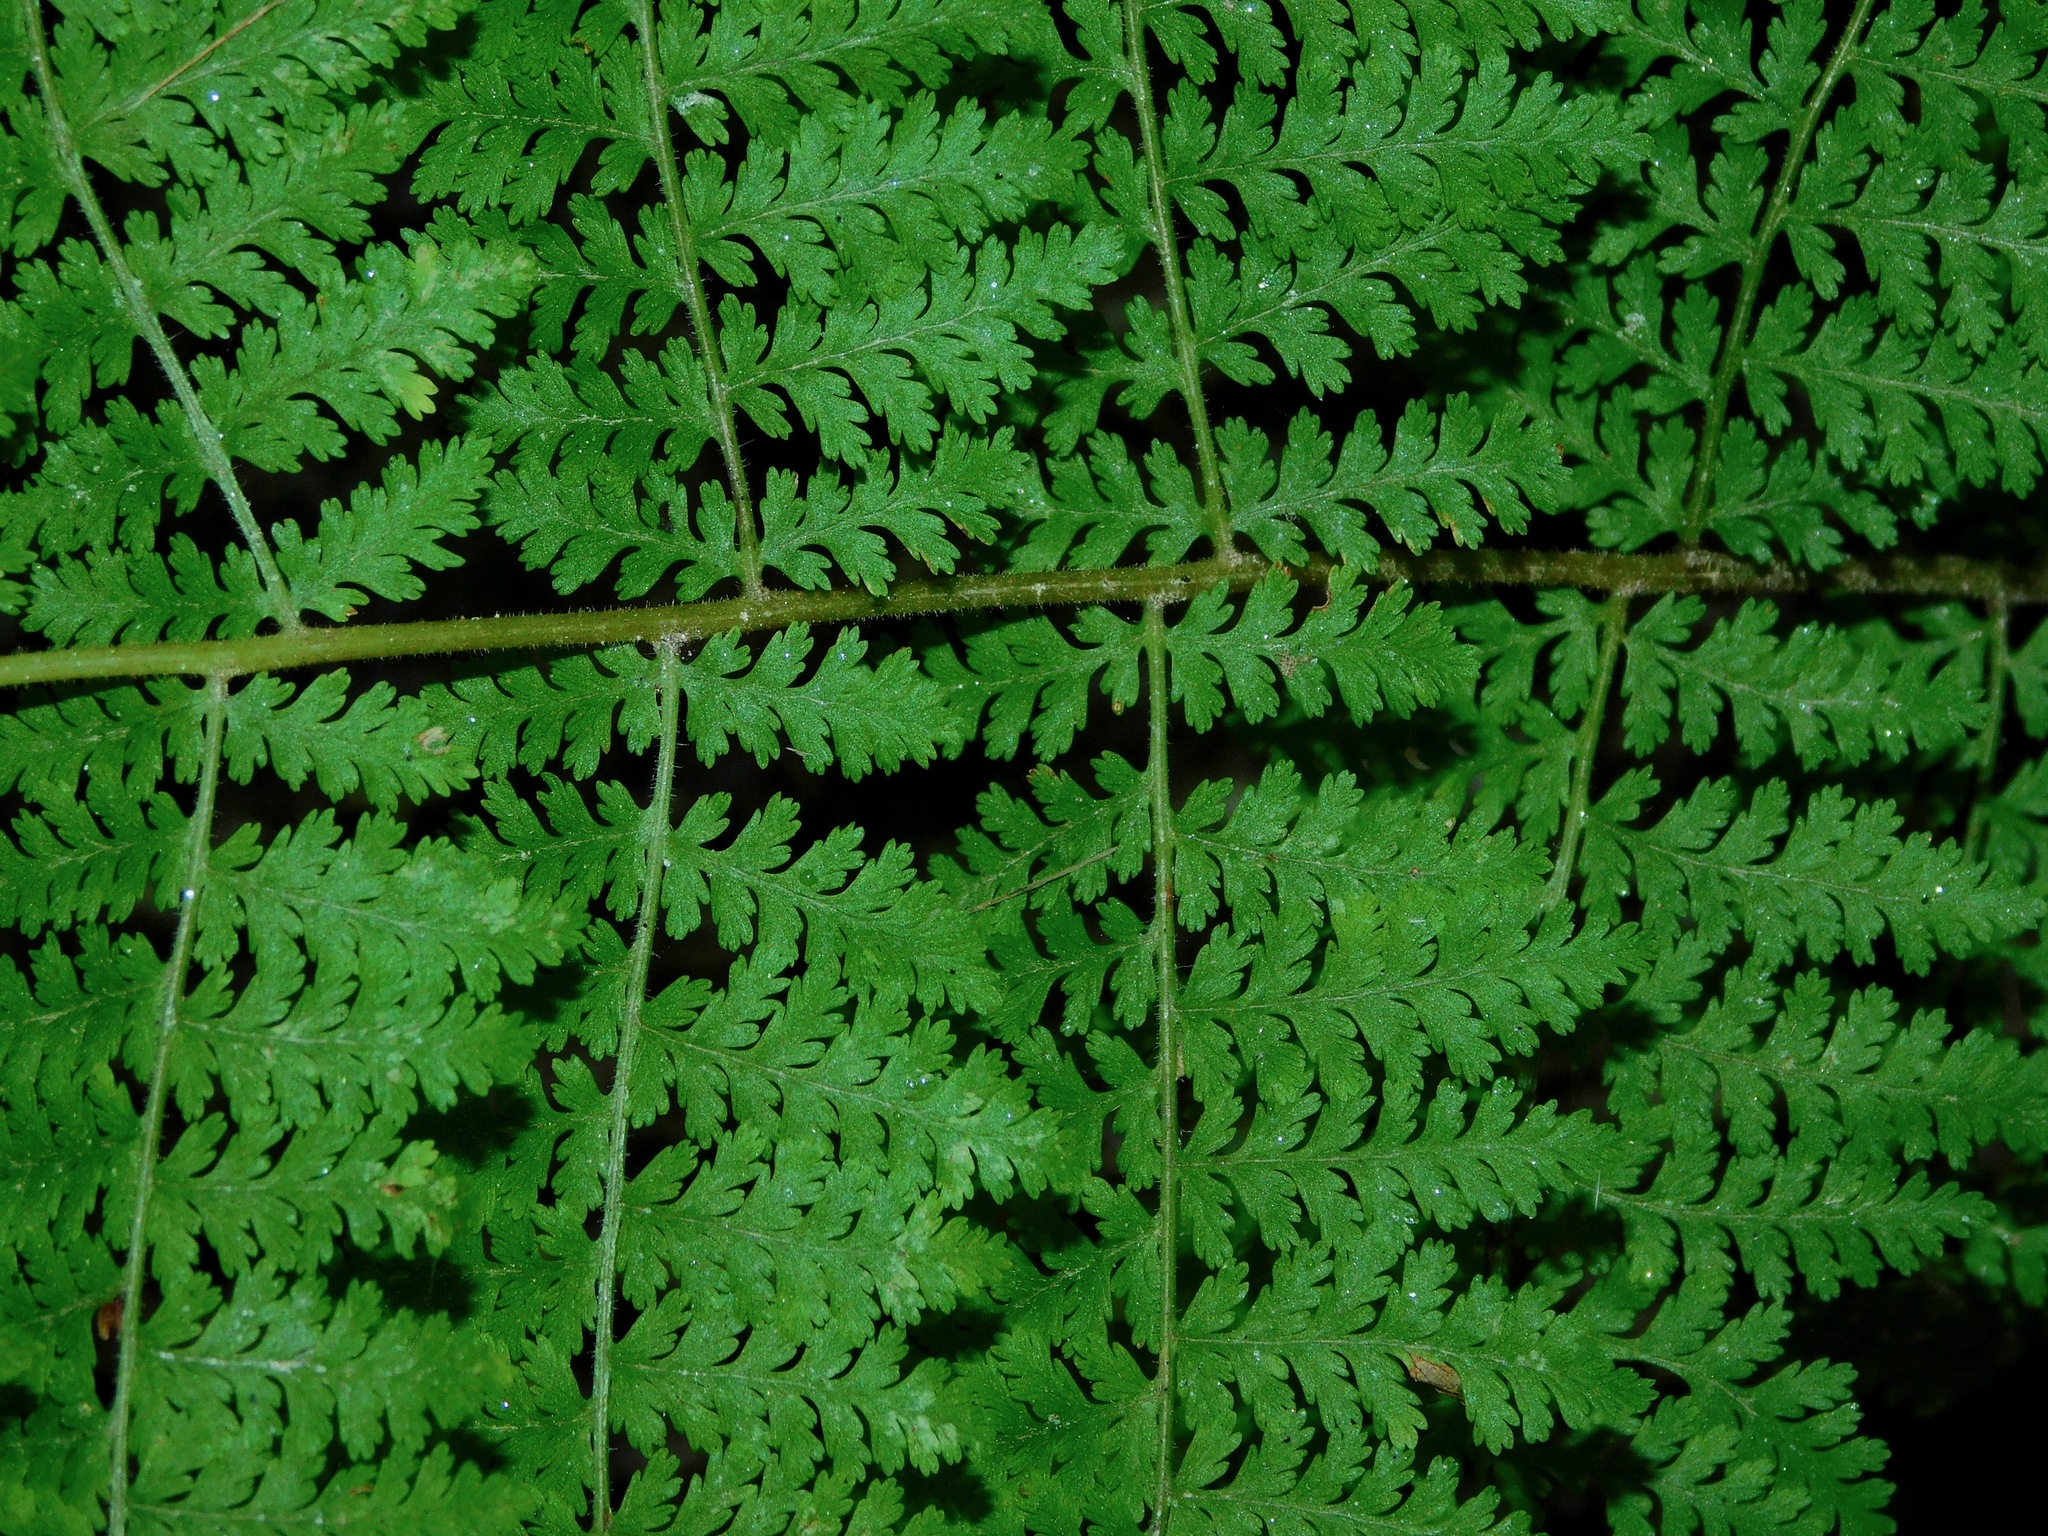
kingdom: Plantae
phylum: Tracheophyta
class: Polypodiopsida
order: Polypodiales
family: Dennstaedtiaceae
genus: Sitobolium
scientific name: Sitobolium punctilobum
